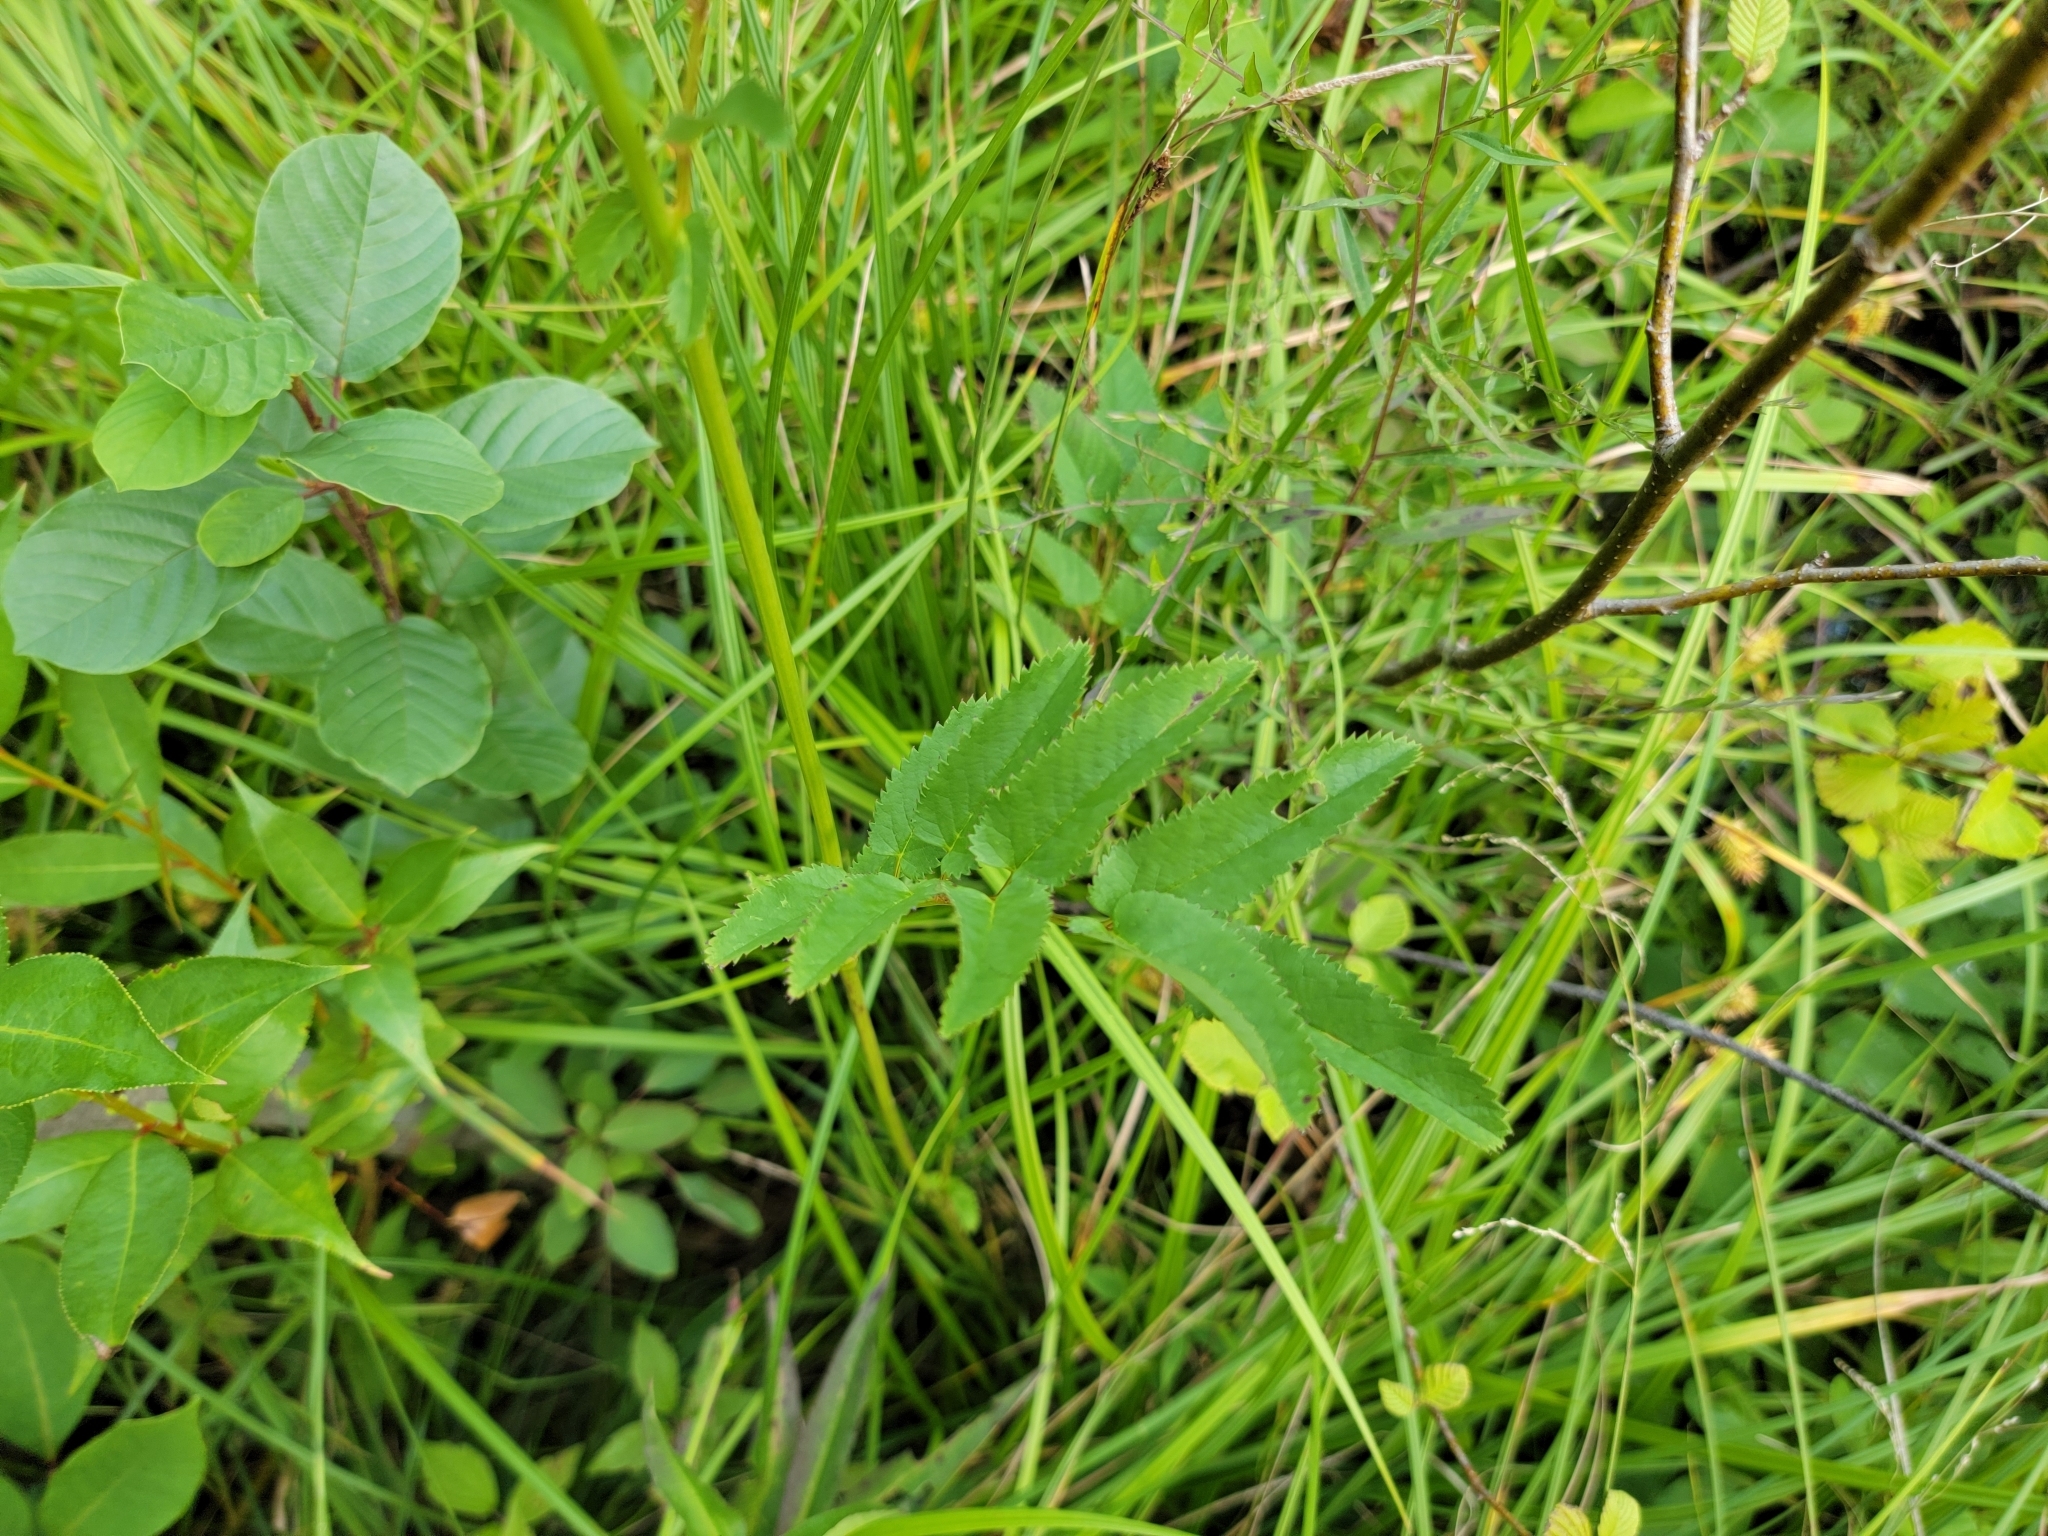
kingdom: Plantae
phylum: Tracheophyta
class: Magnoliopsida
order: Rosales
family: Rosaceae
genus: Sanguisorba
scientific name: Sanguisorba canadensis
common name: White burnet
